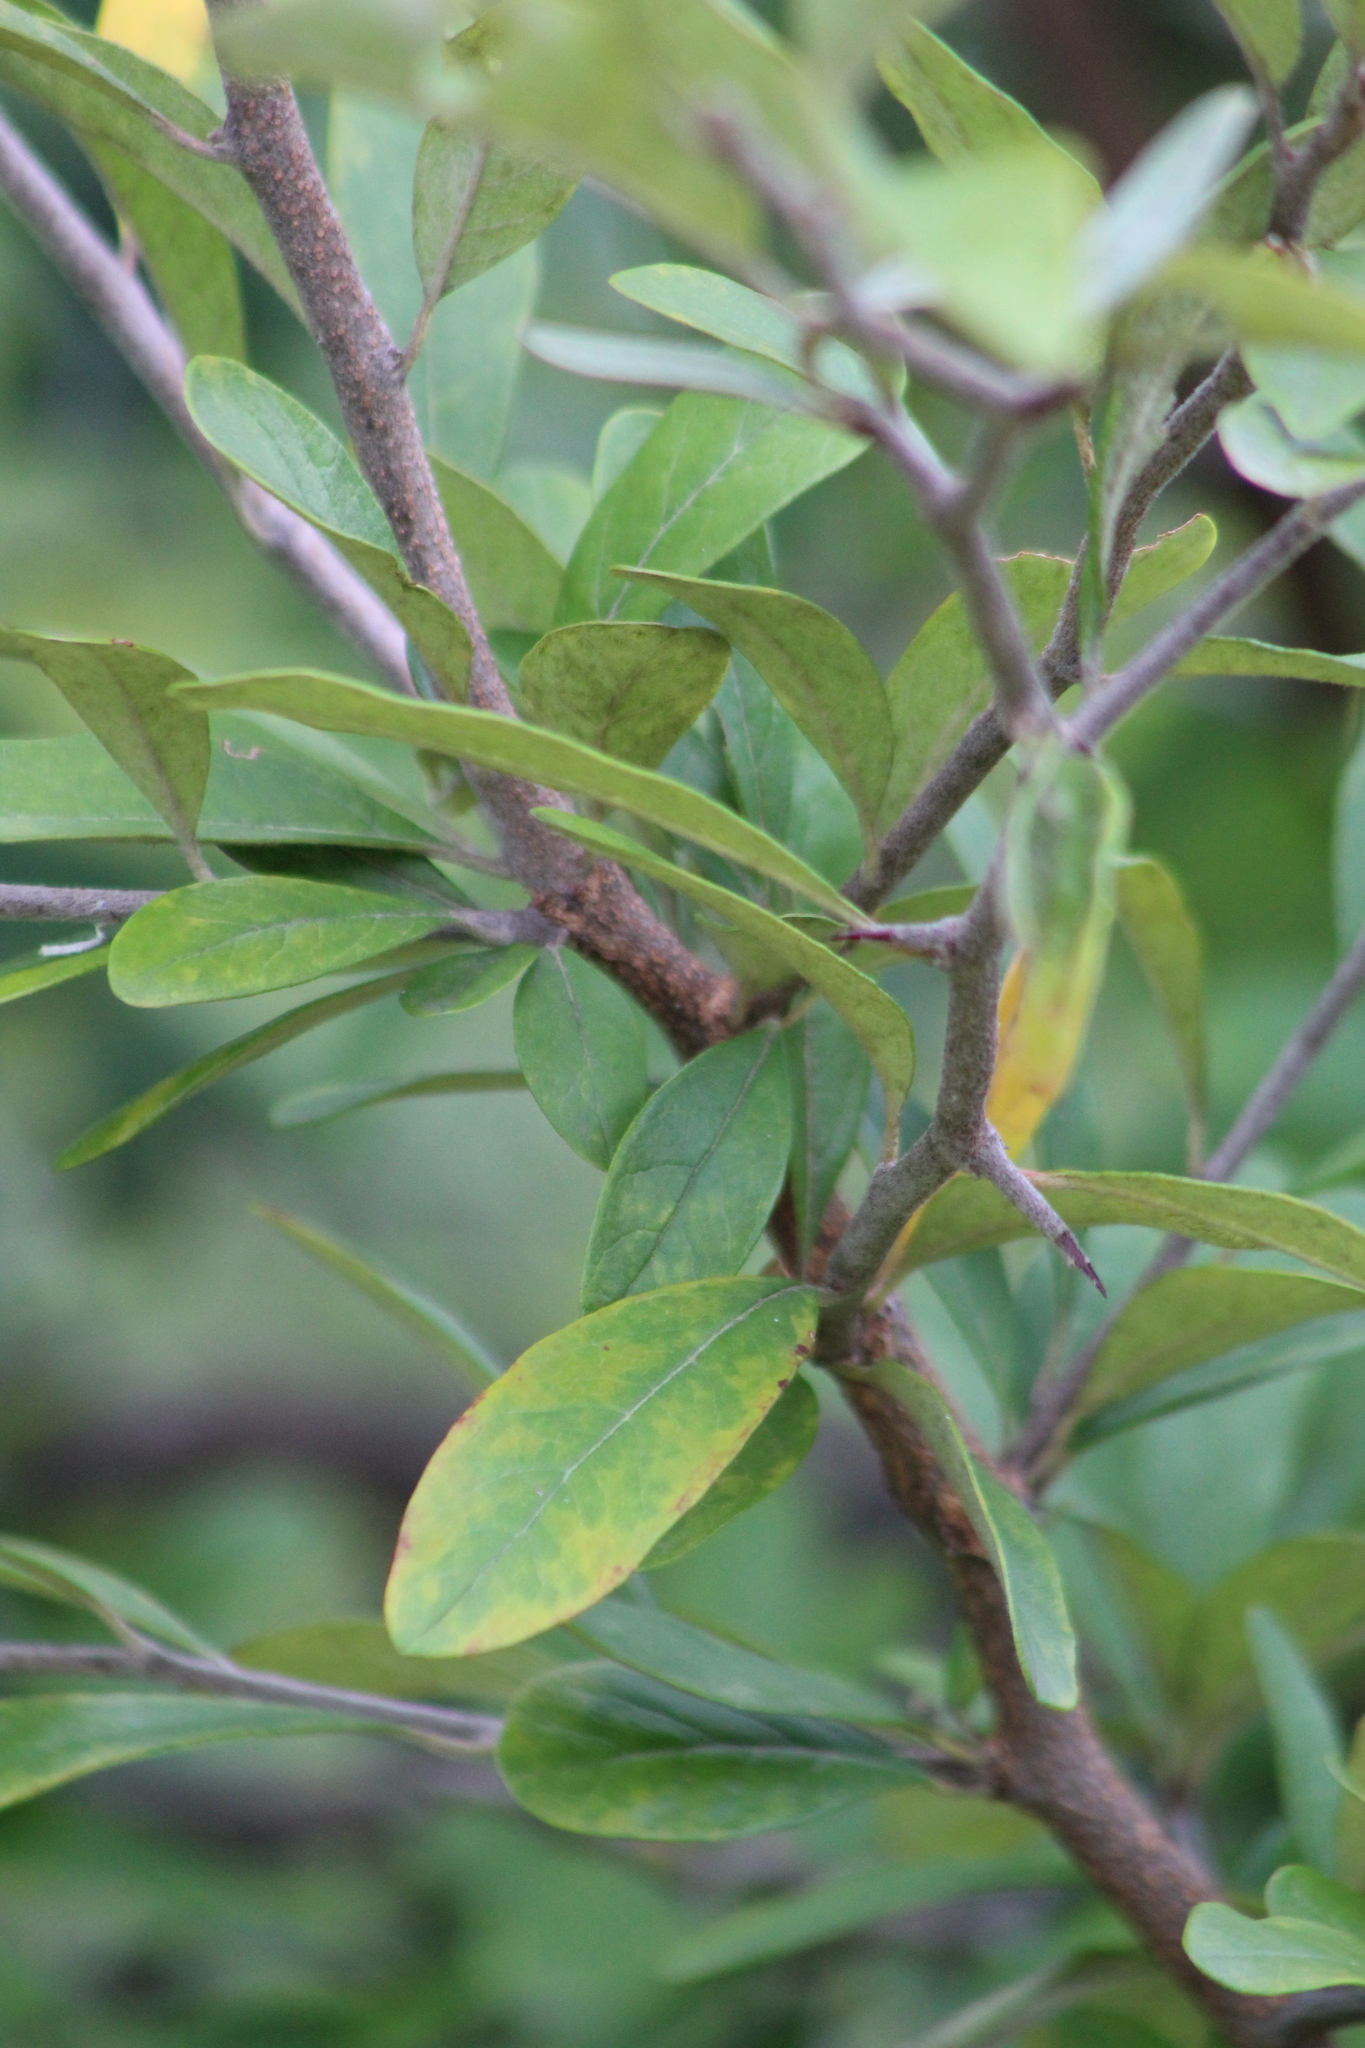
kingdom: Plantae
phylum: Tracheophyta
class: Magnoliopsida
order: Ericales
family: Sapotaceae
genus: Sideroxylon
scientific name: Sideroxylon lanuginosum
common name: Chittamwood
